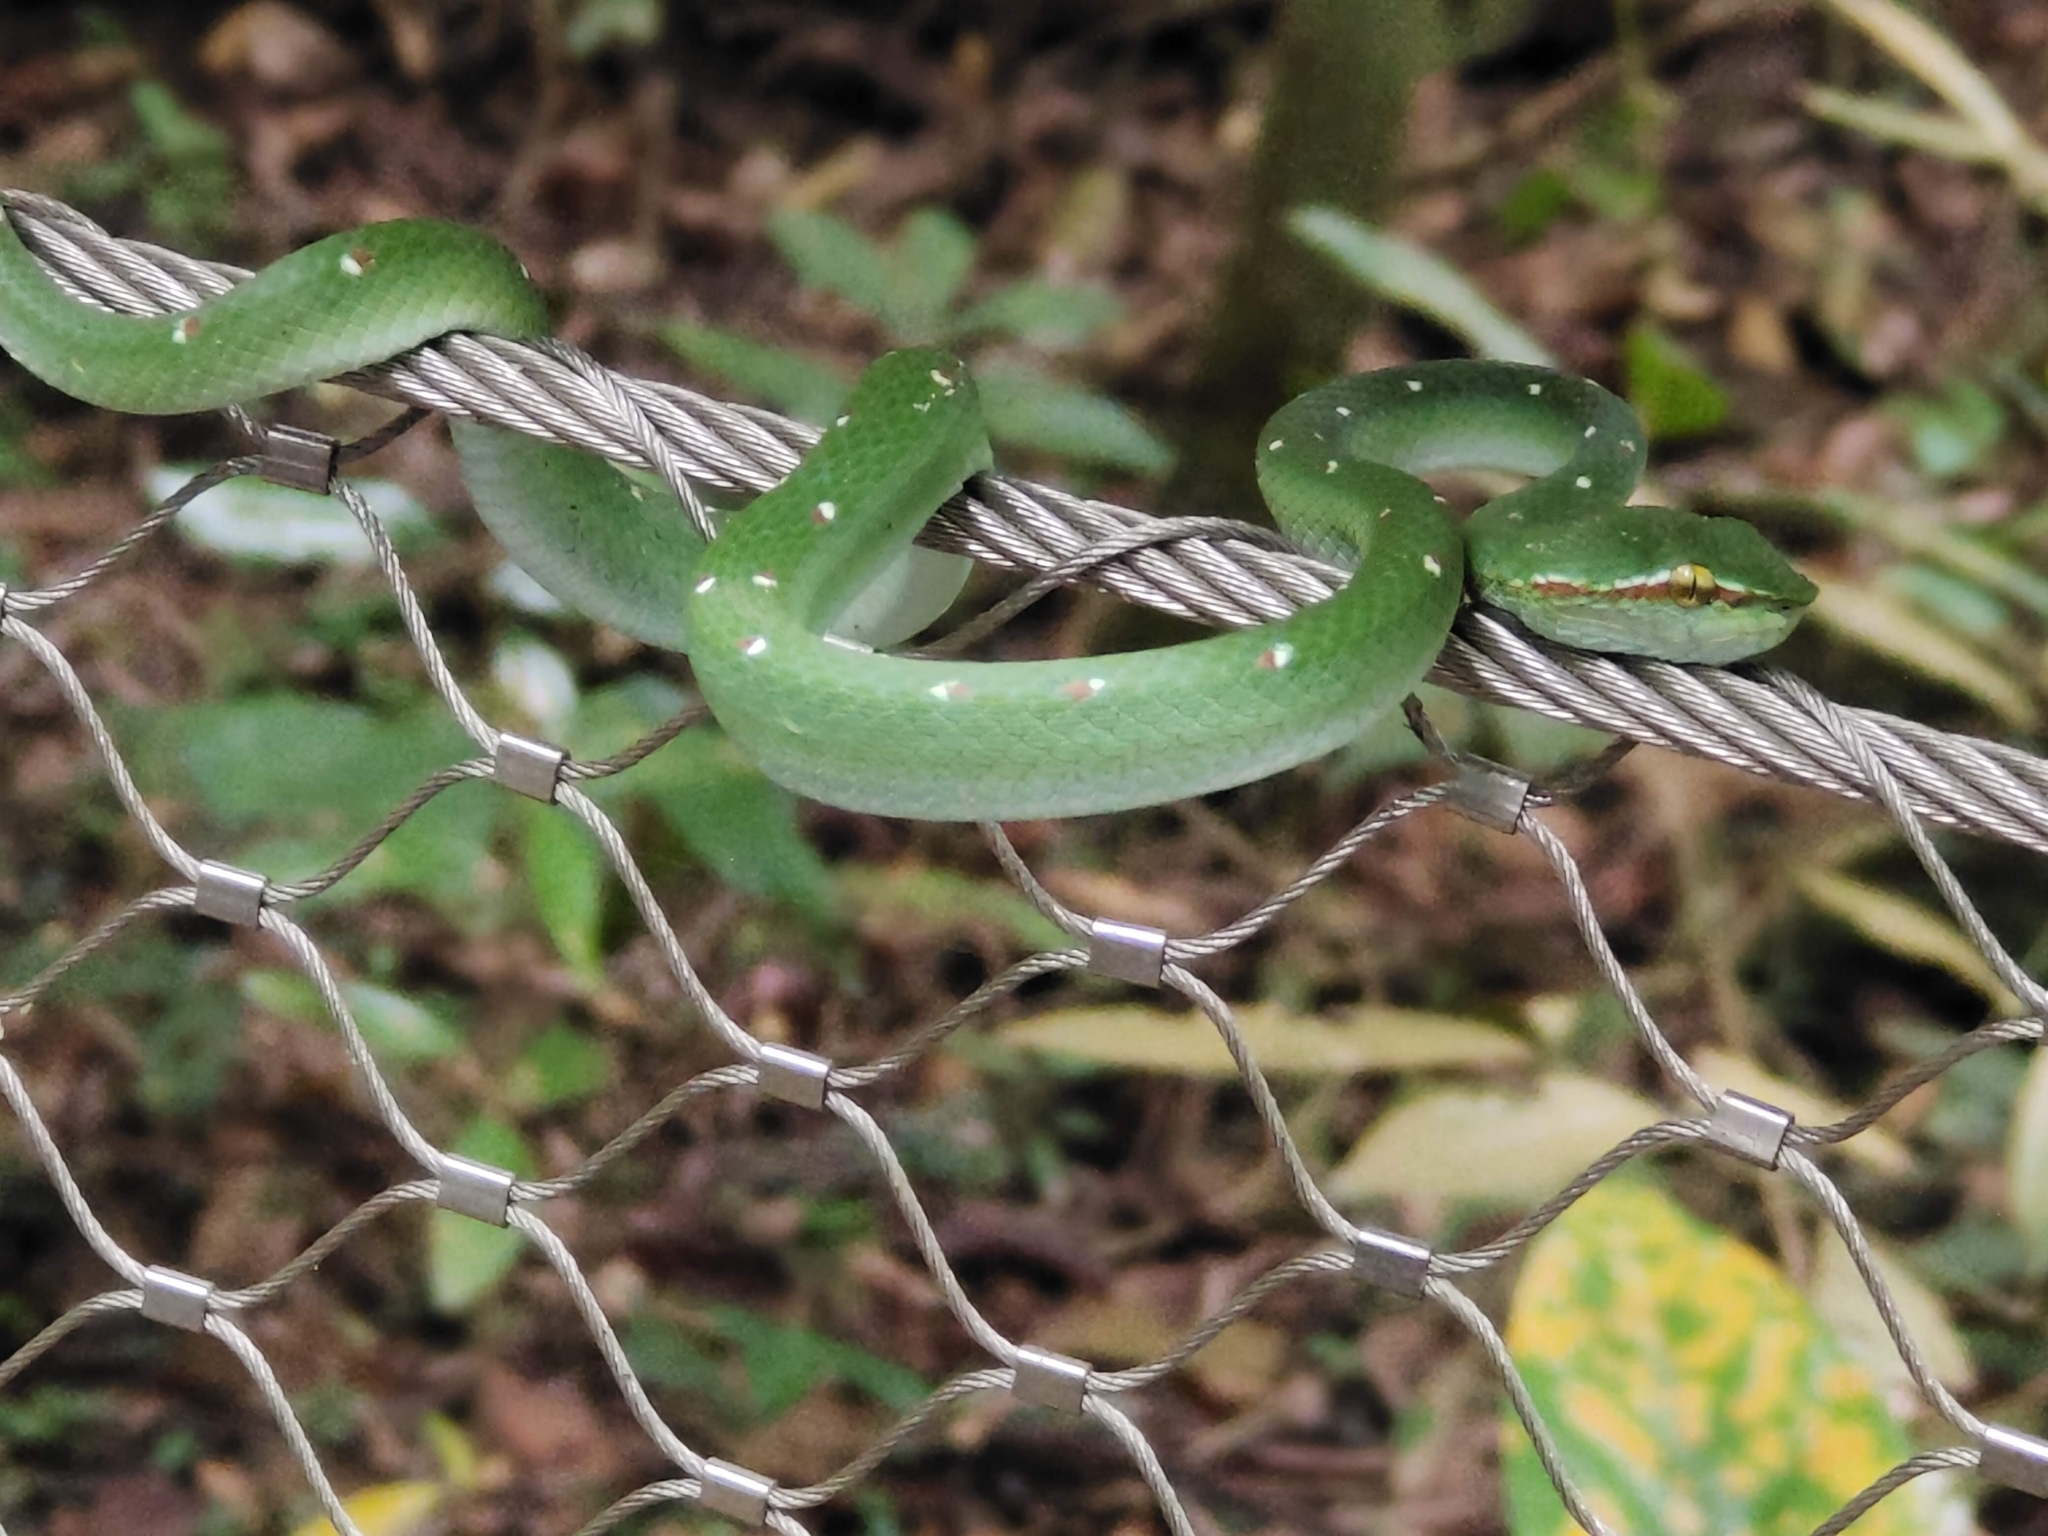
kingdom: Animalia
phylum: Chordata
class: Squamata
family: Viperidae
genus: Tropidolaemus
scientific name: Tropidolaemus wagleri
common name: Wagler's palm viper
